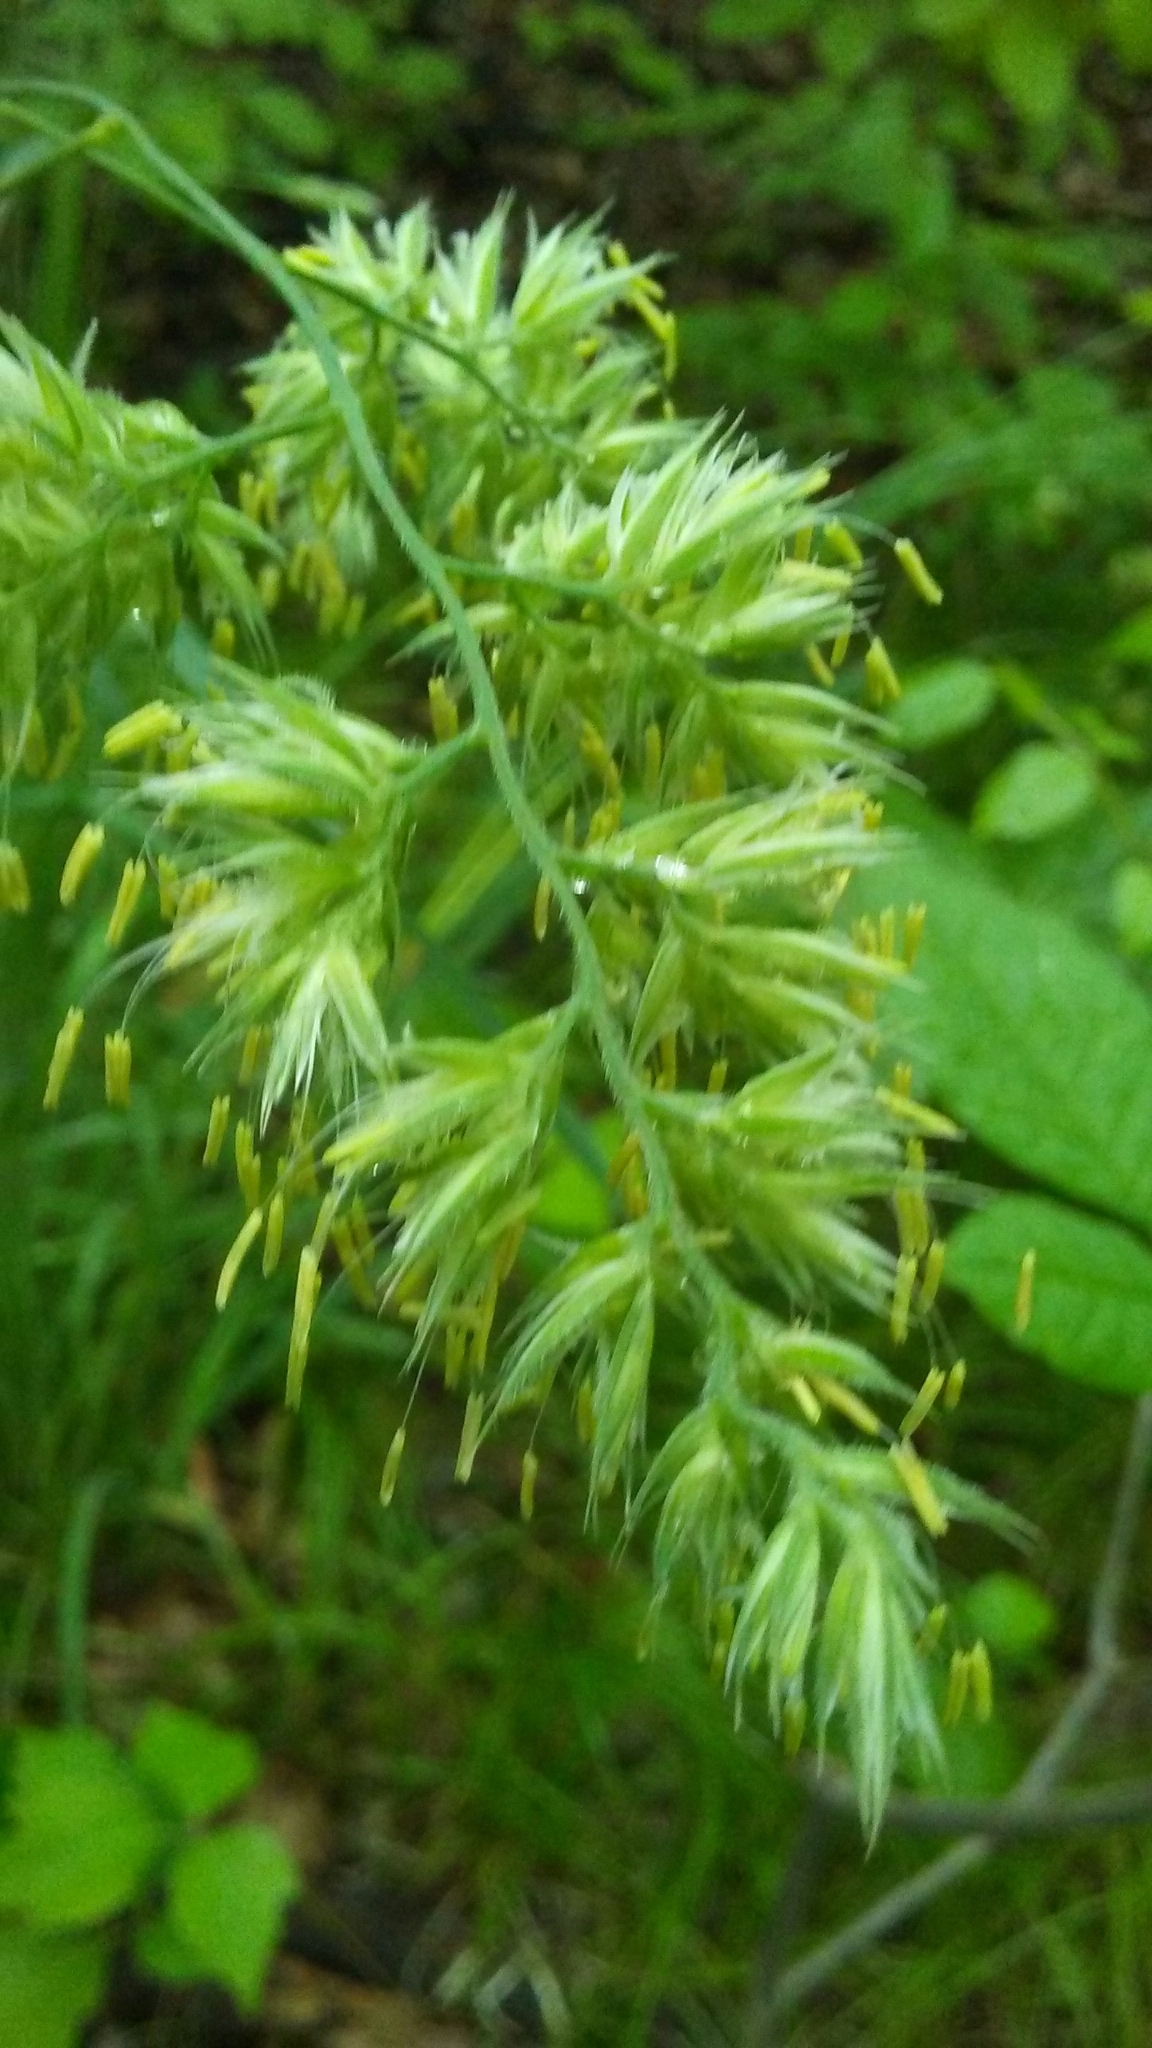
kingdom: Plantae
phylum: Tracheophyta
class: Liliopsida
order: Poales
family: Poaceae
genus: Dactylis
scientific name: Dactylis glomerata
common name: Orchardgrass
